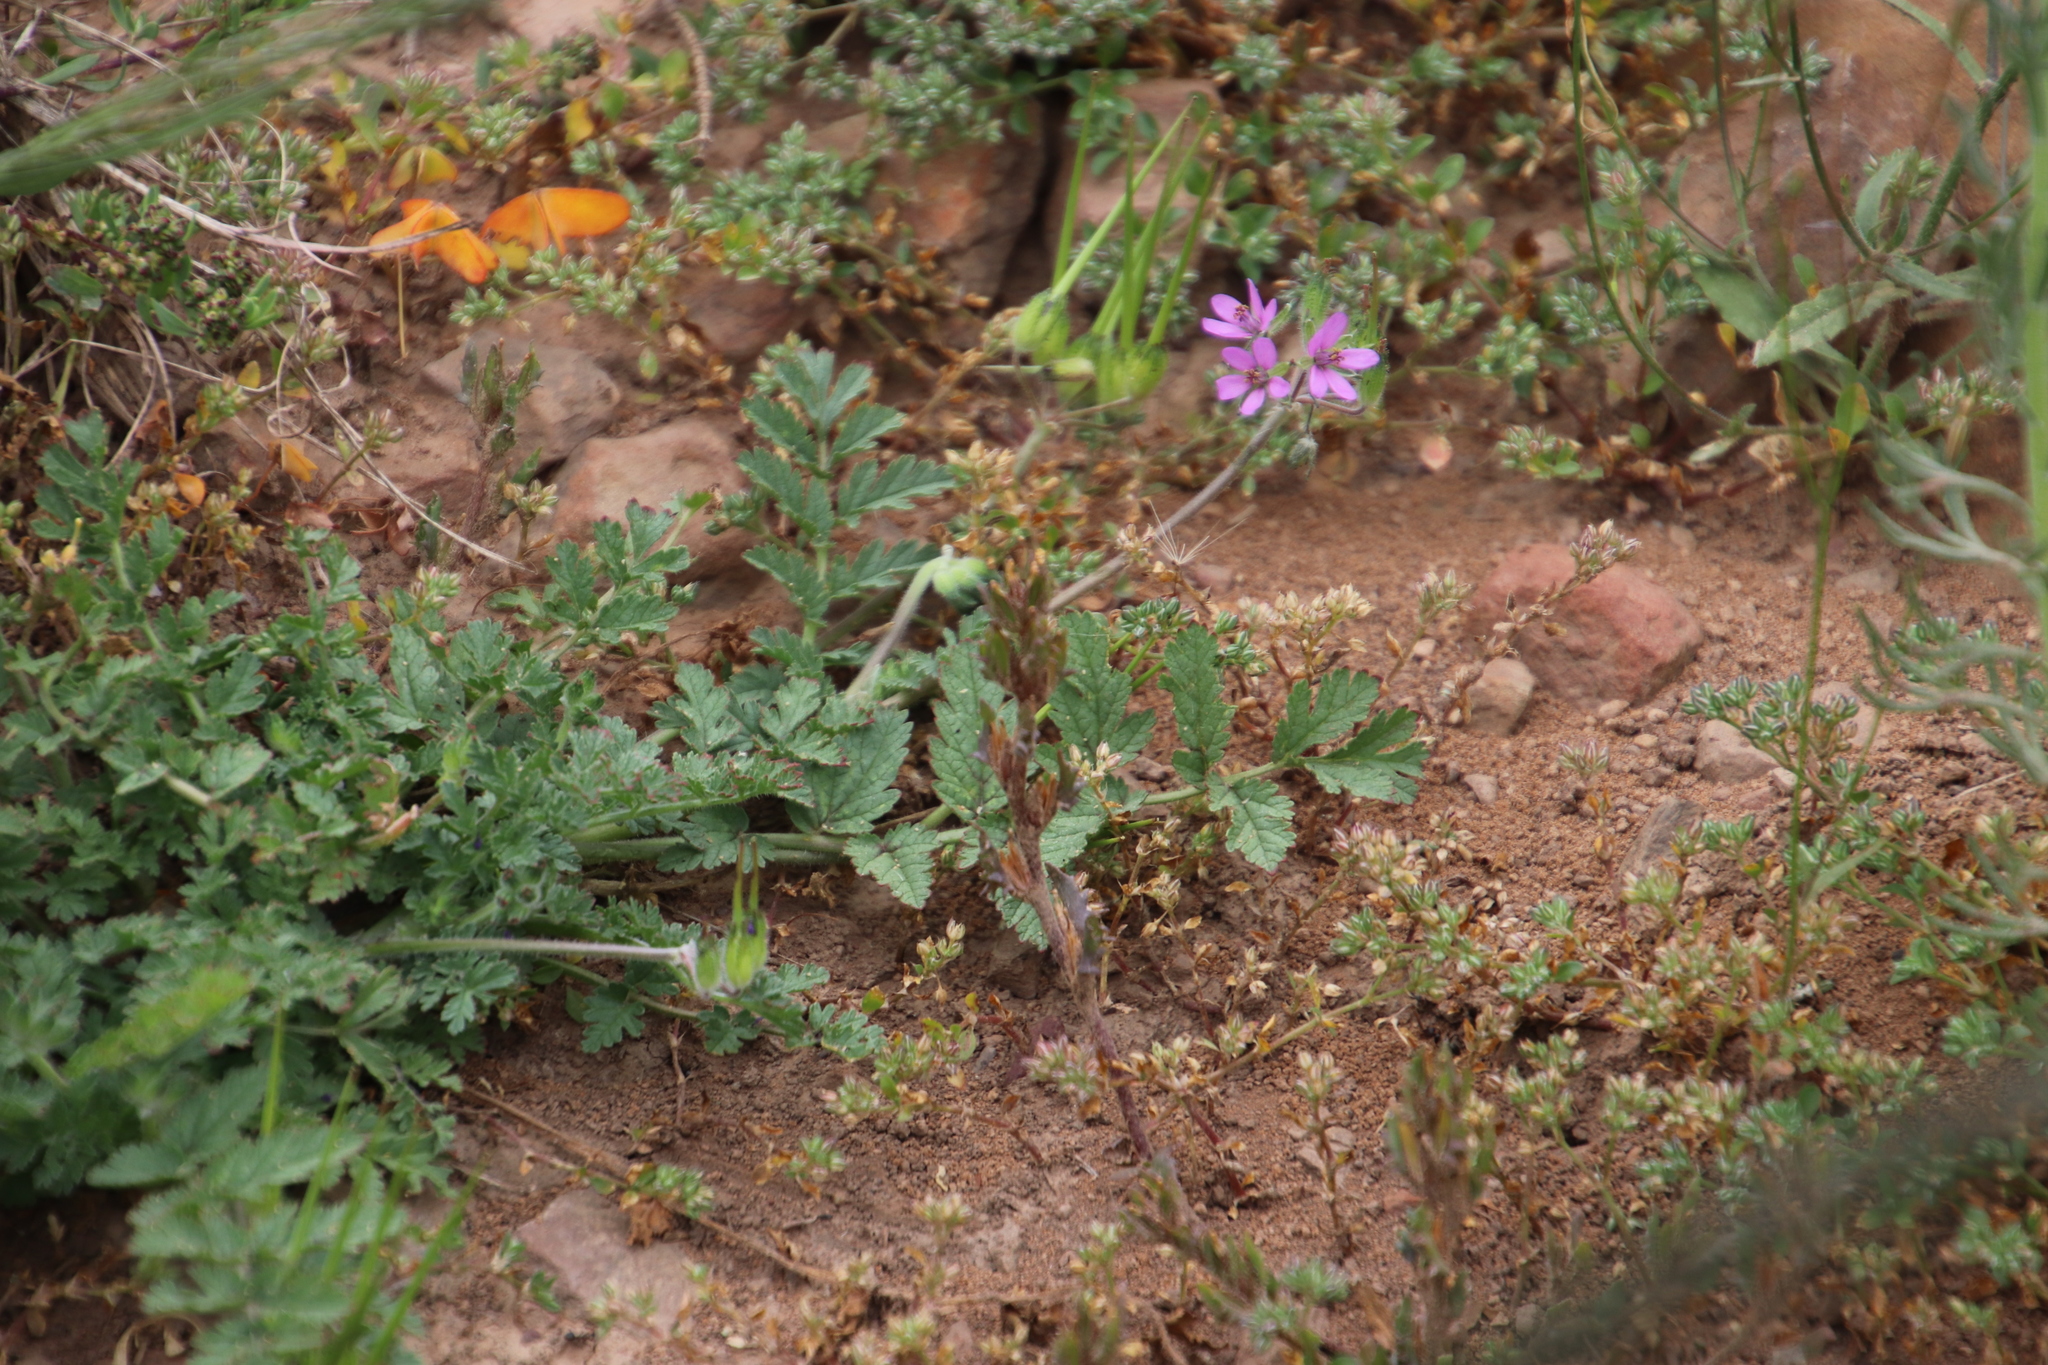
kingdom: Plantae
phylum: Tracheophyta
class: Magnoliopsida
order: Geraniales
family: Geraniaceae
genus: Erodium
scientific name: Erodium moschatum
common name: Musk stork's-bill
